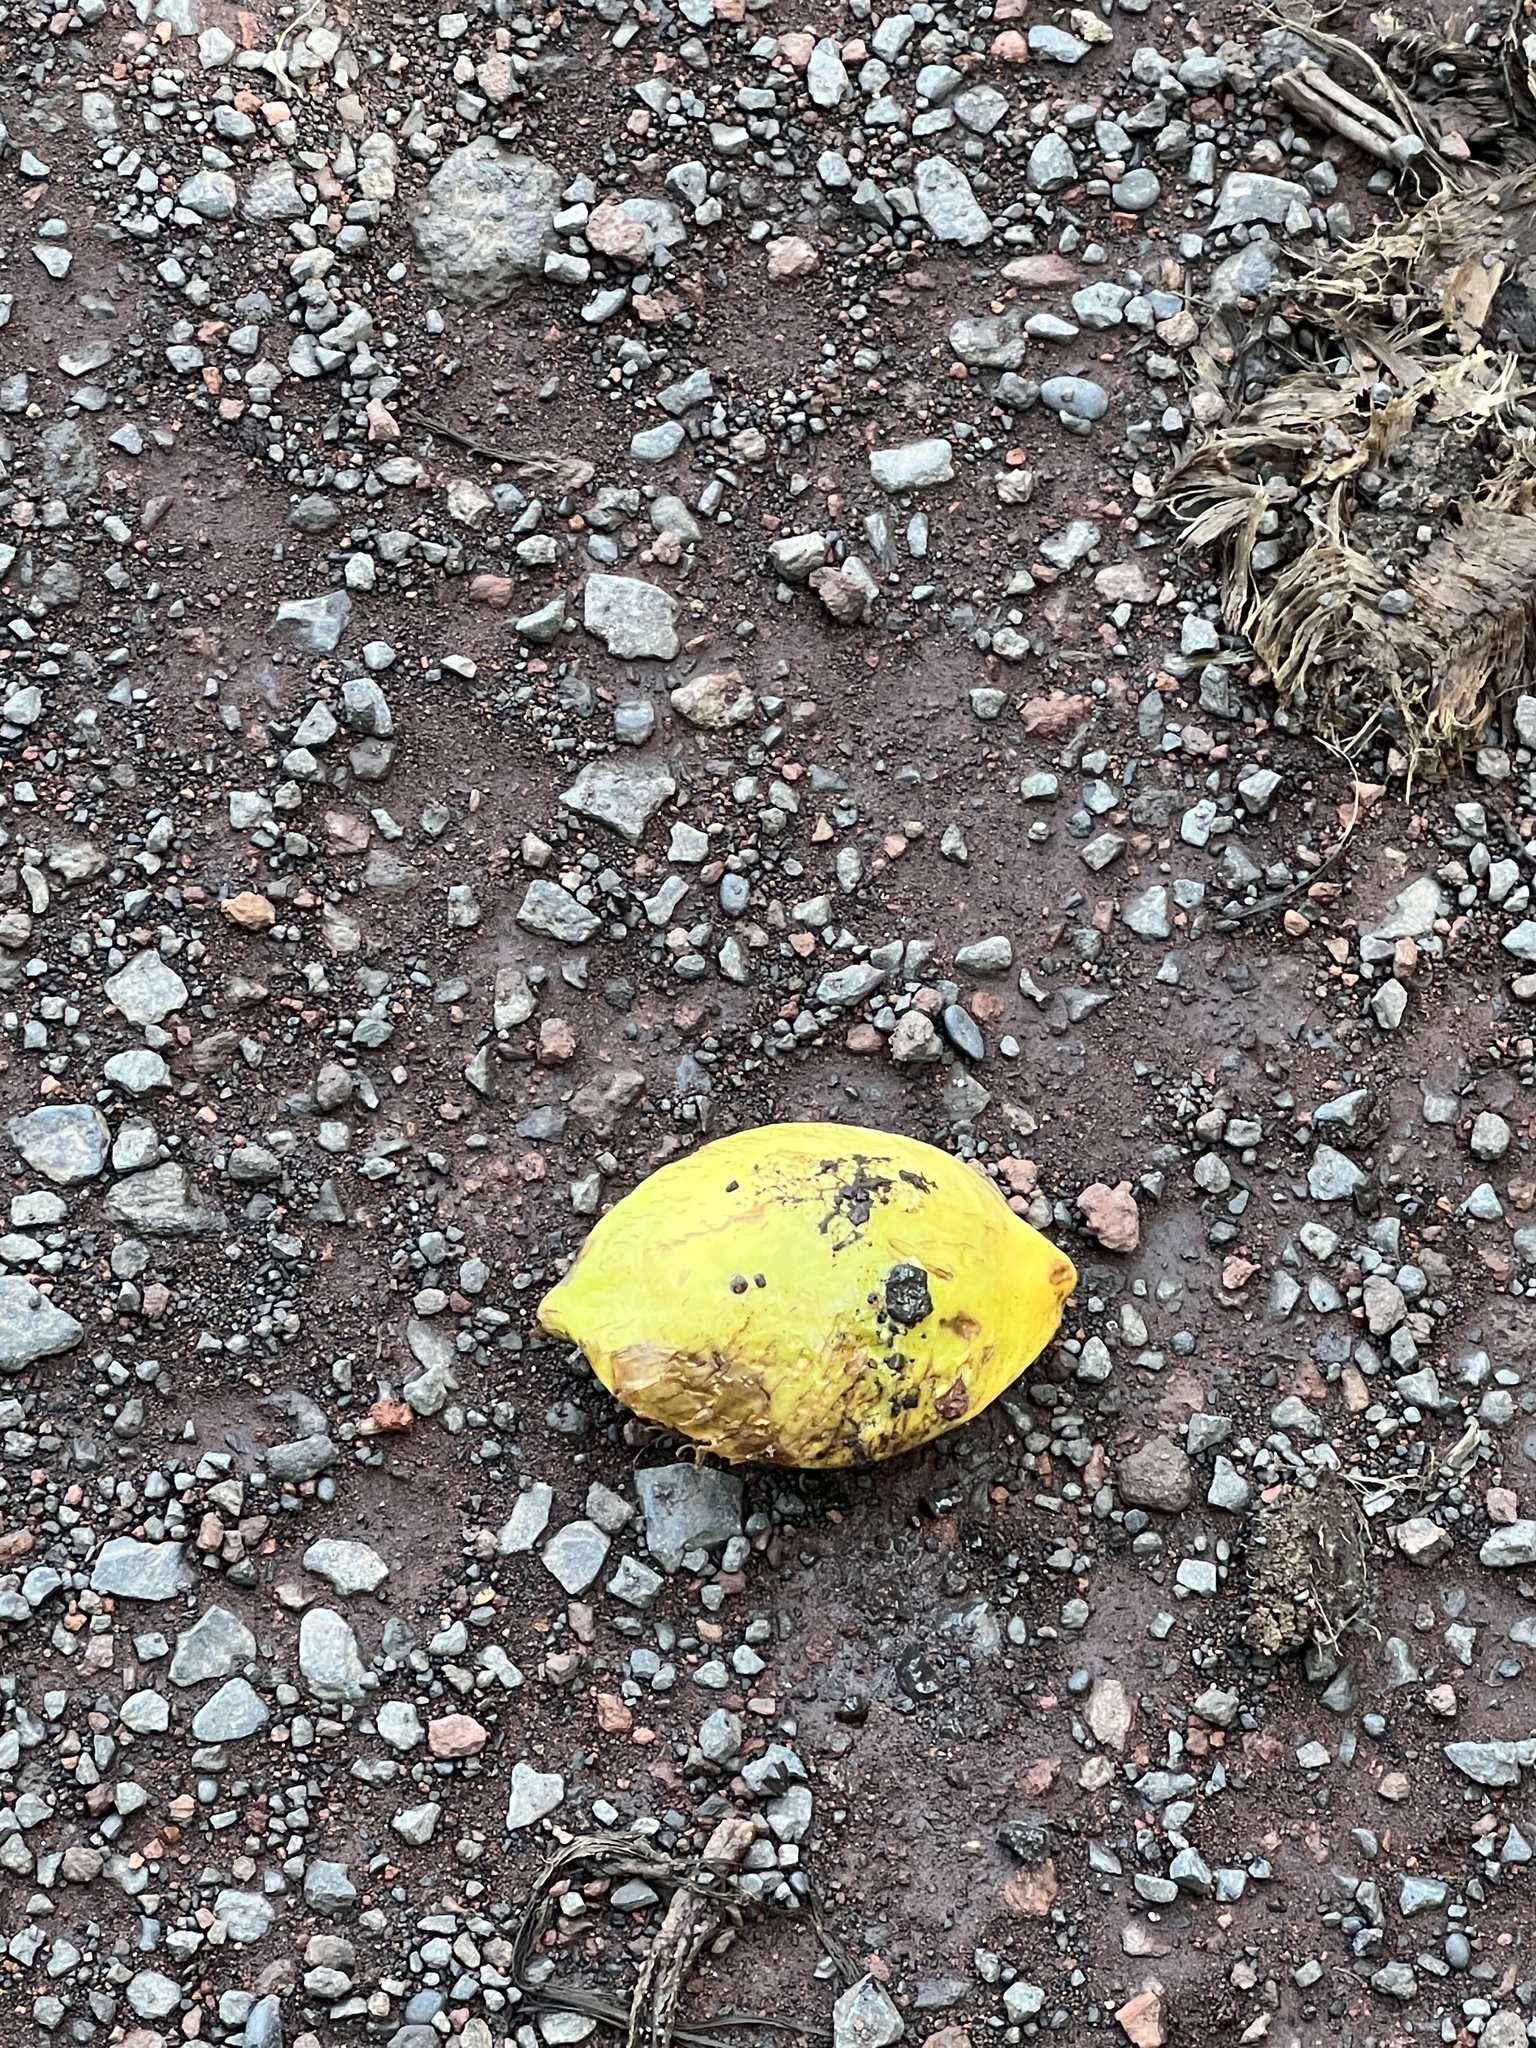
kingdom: Plantae
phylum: Tracheophyta
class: Magnoliopsida
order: Myrtales
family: Combretaceae
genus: Terminalia
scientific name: Terminalia catappa
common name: Tropical almond
